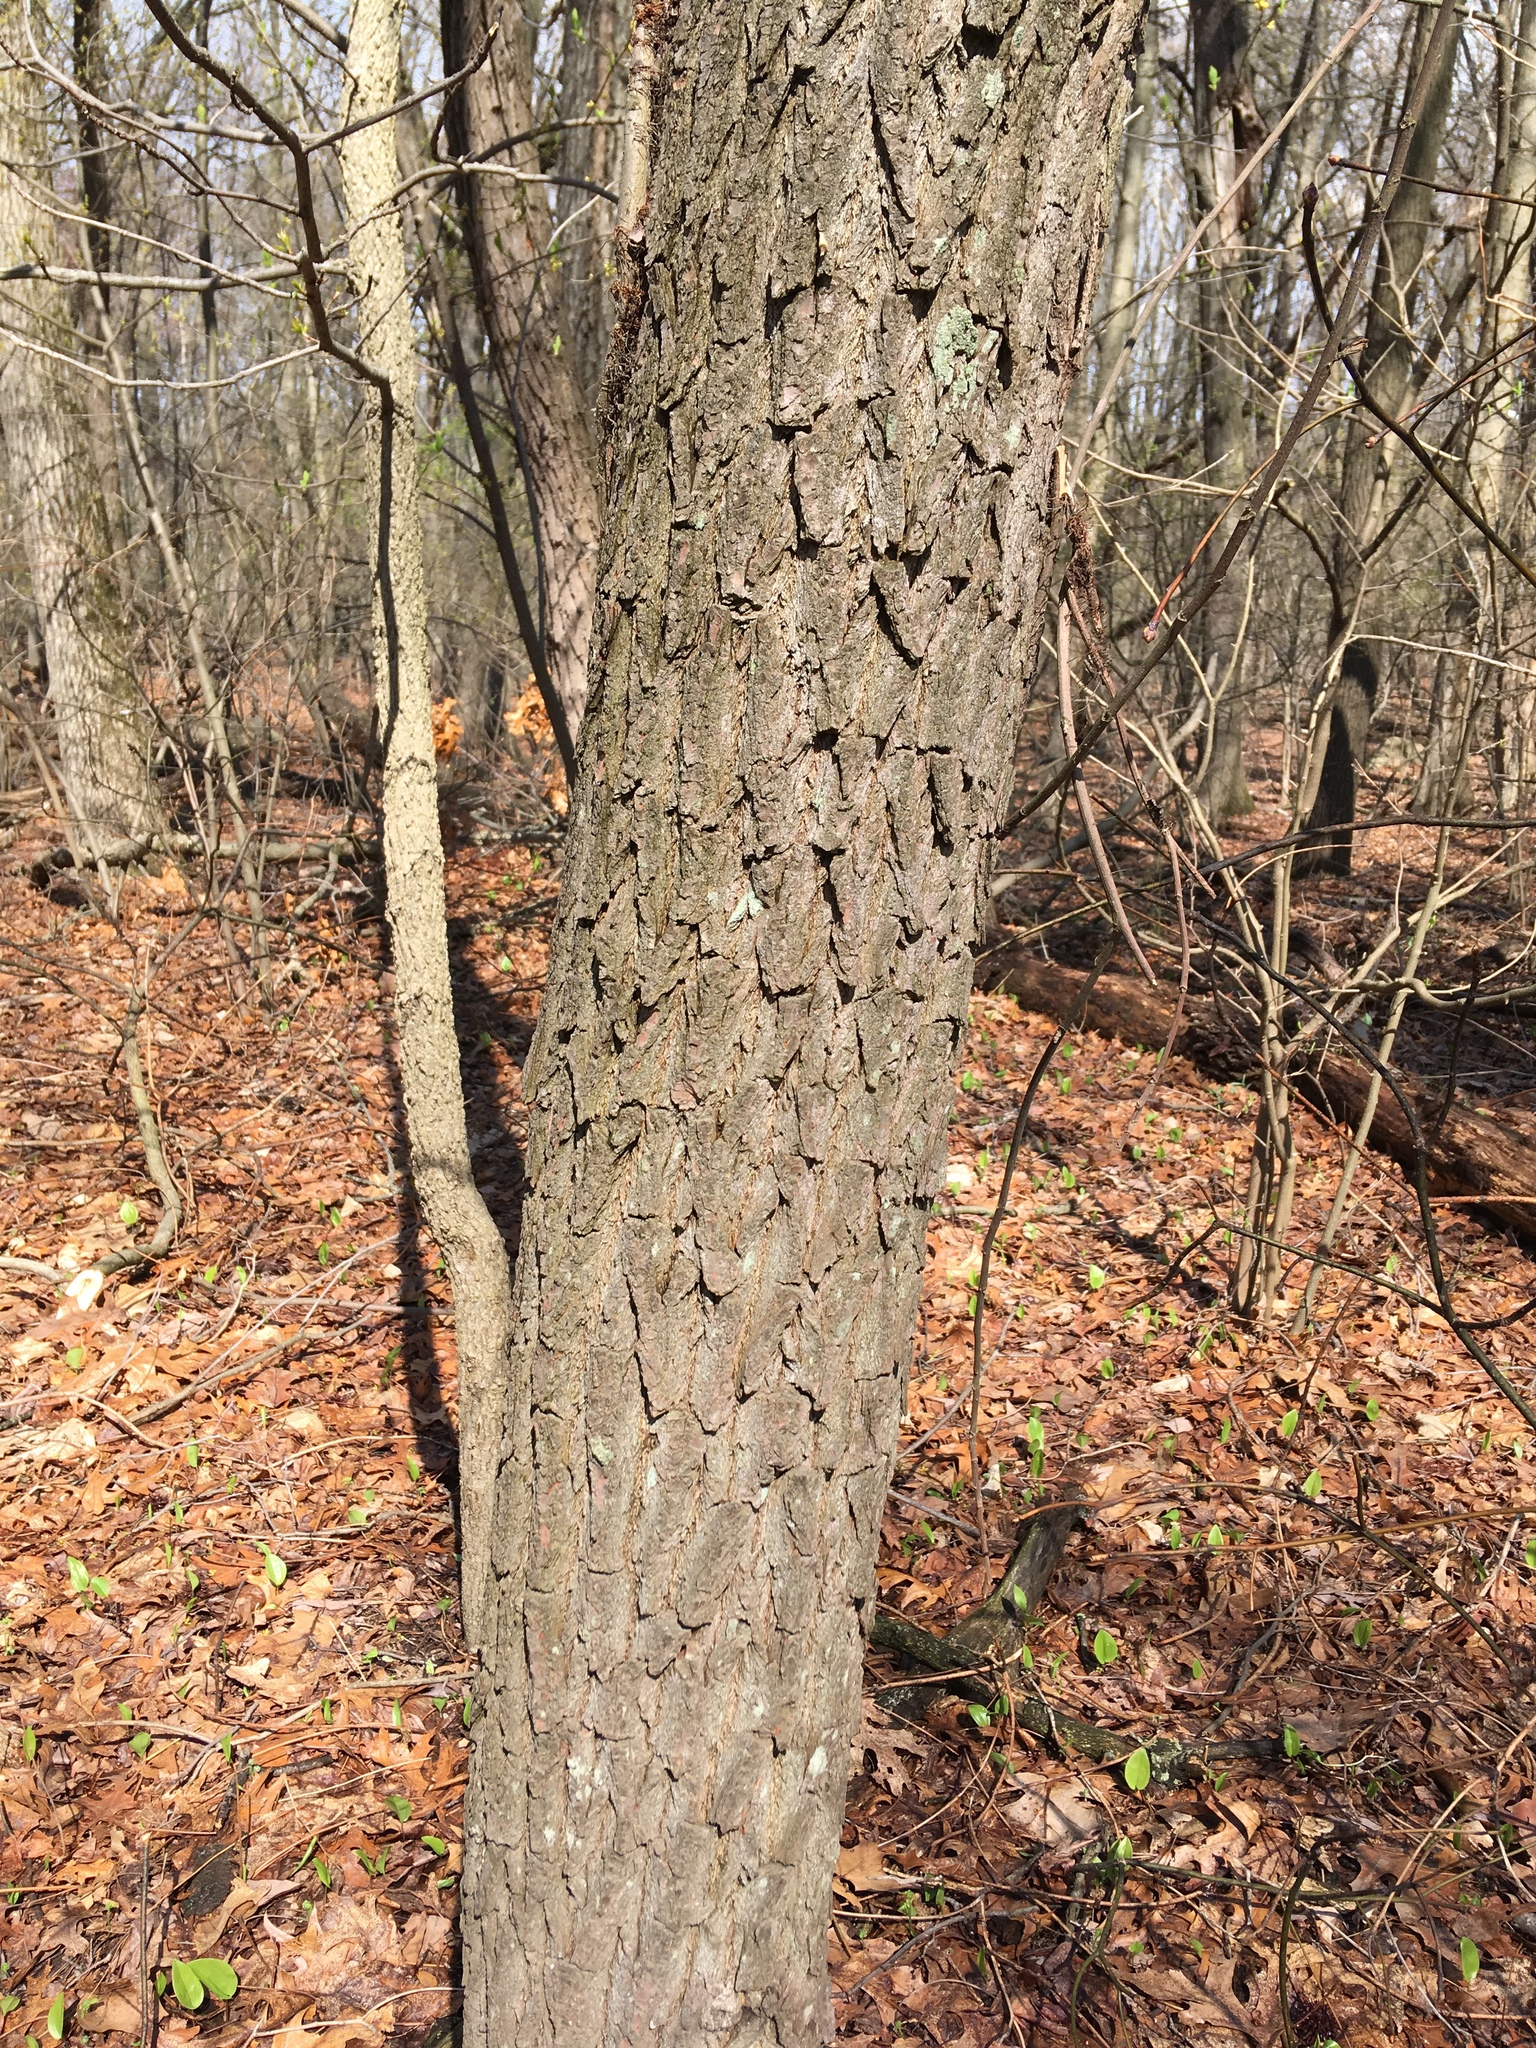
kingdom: Plantae
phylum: Tracheophyta
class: Magnoliopsida
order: Laurales
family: Lauraceae
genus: Sassafras
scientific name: Sassafras albidum
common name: Sassafras
